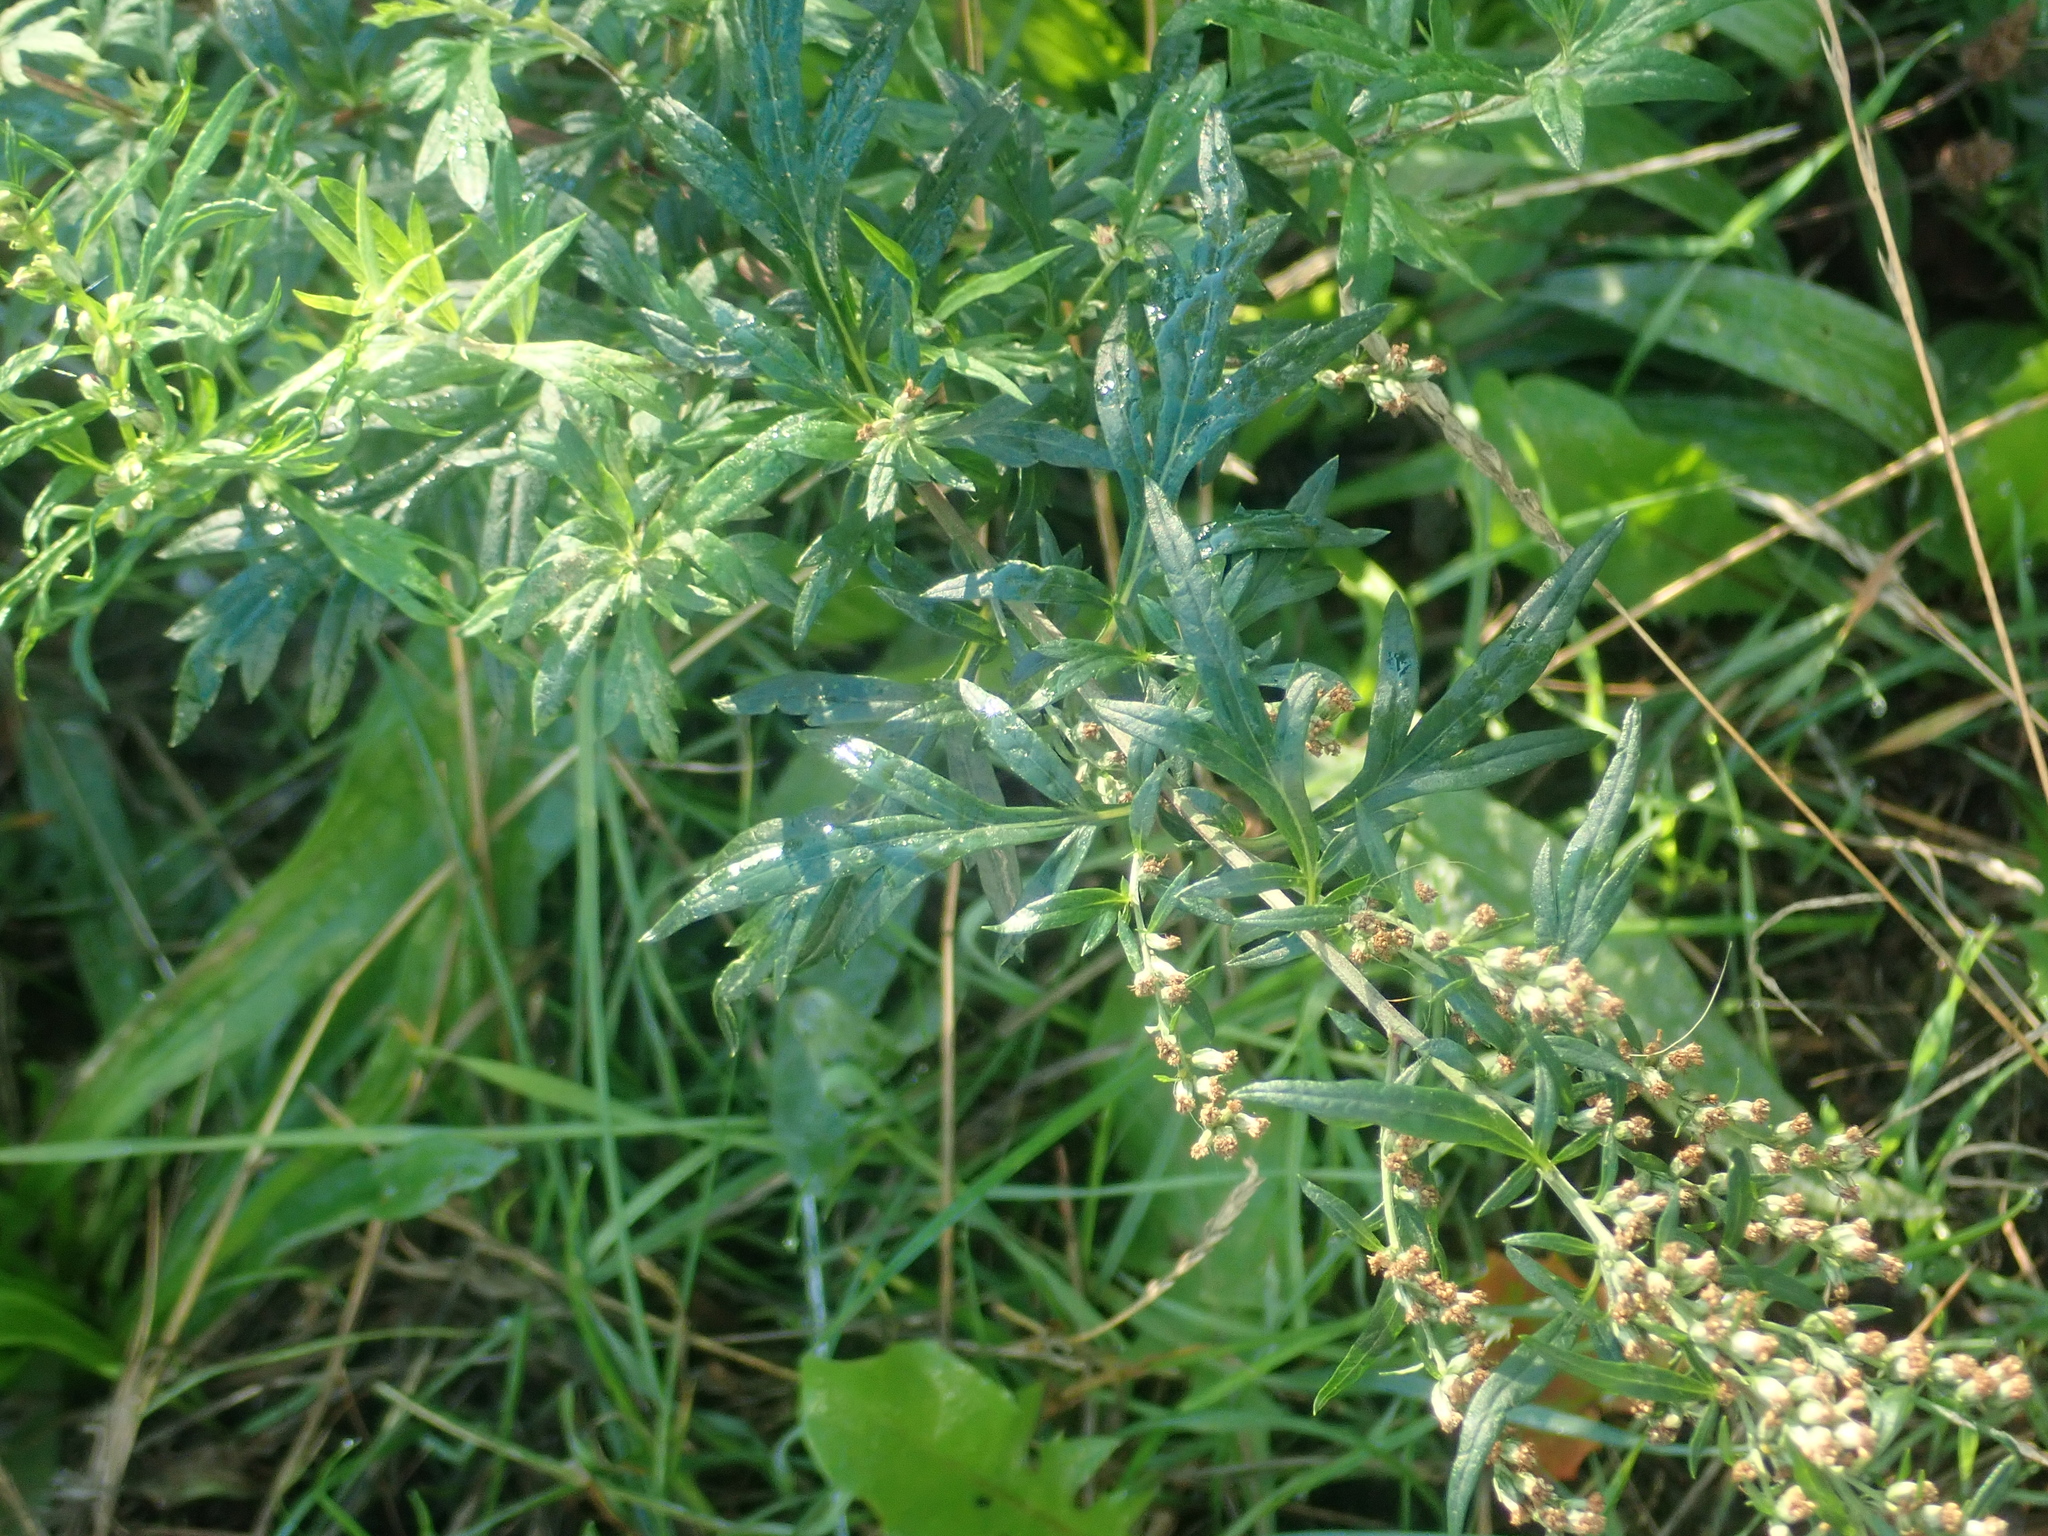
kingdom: Plantae
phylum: Tracheophyta
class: Magnoliopsida
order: Asterales
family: Asteraceae
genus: Artemisia
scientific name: Artemisia vulgaris
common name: Mugwort
